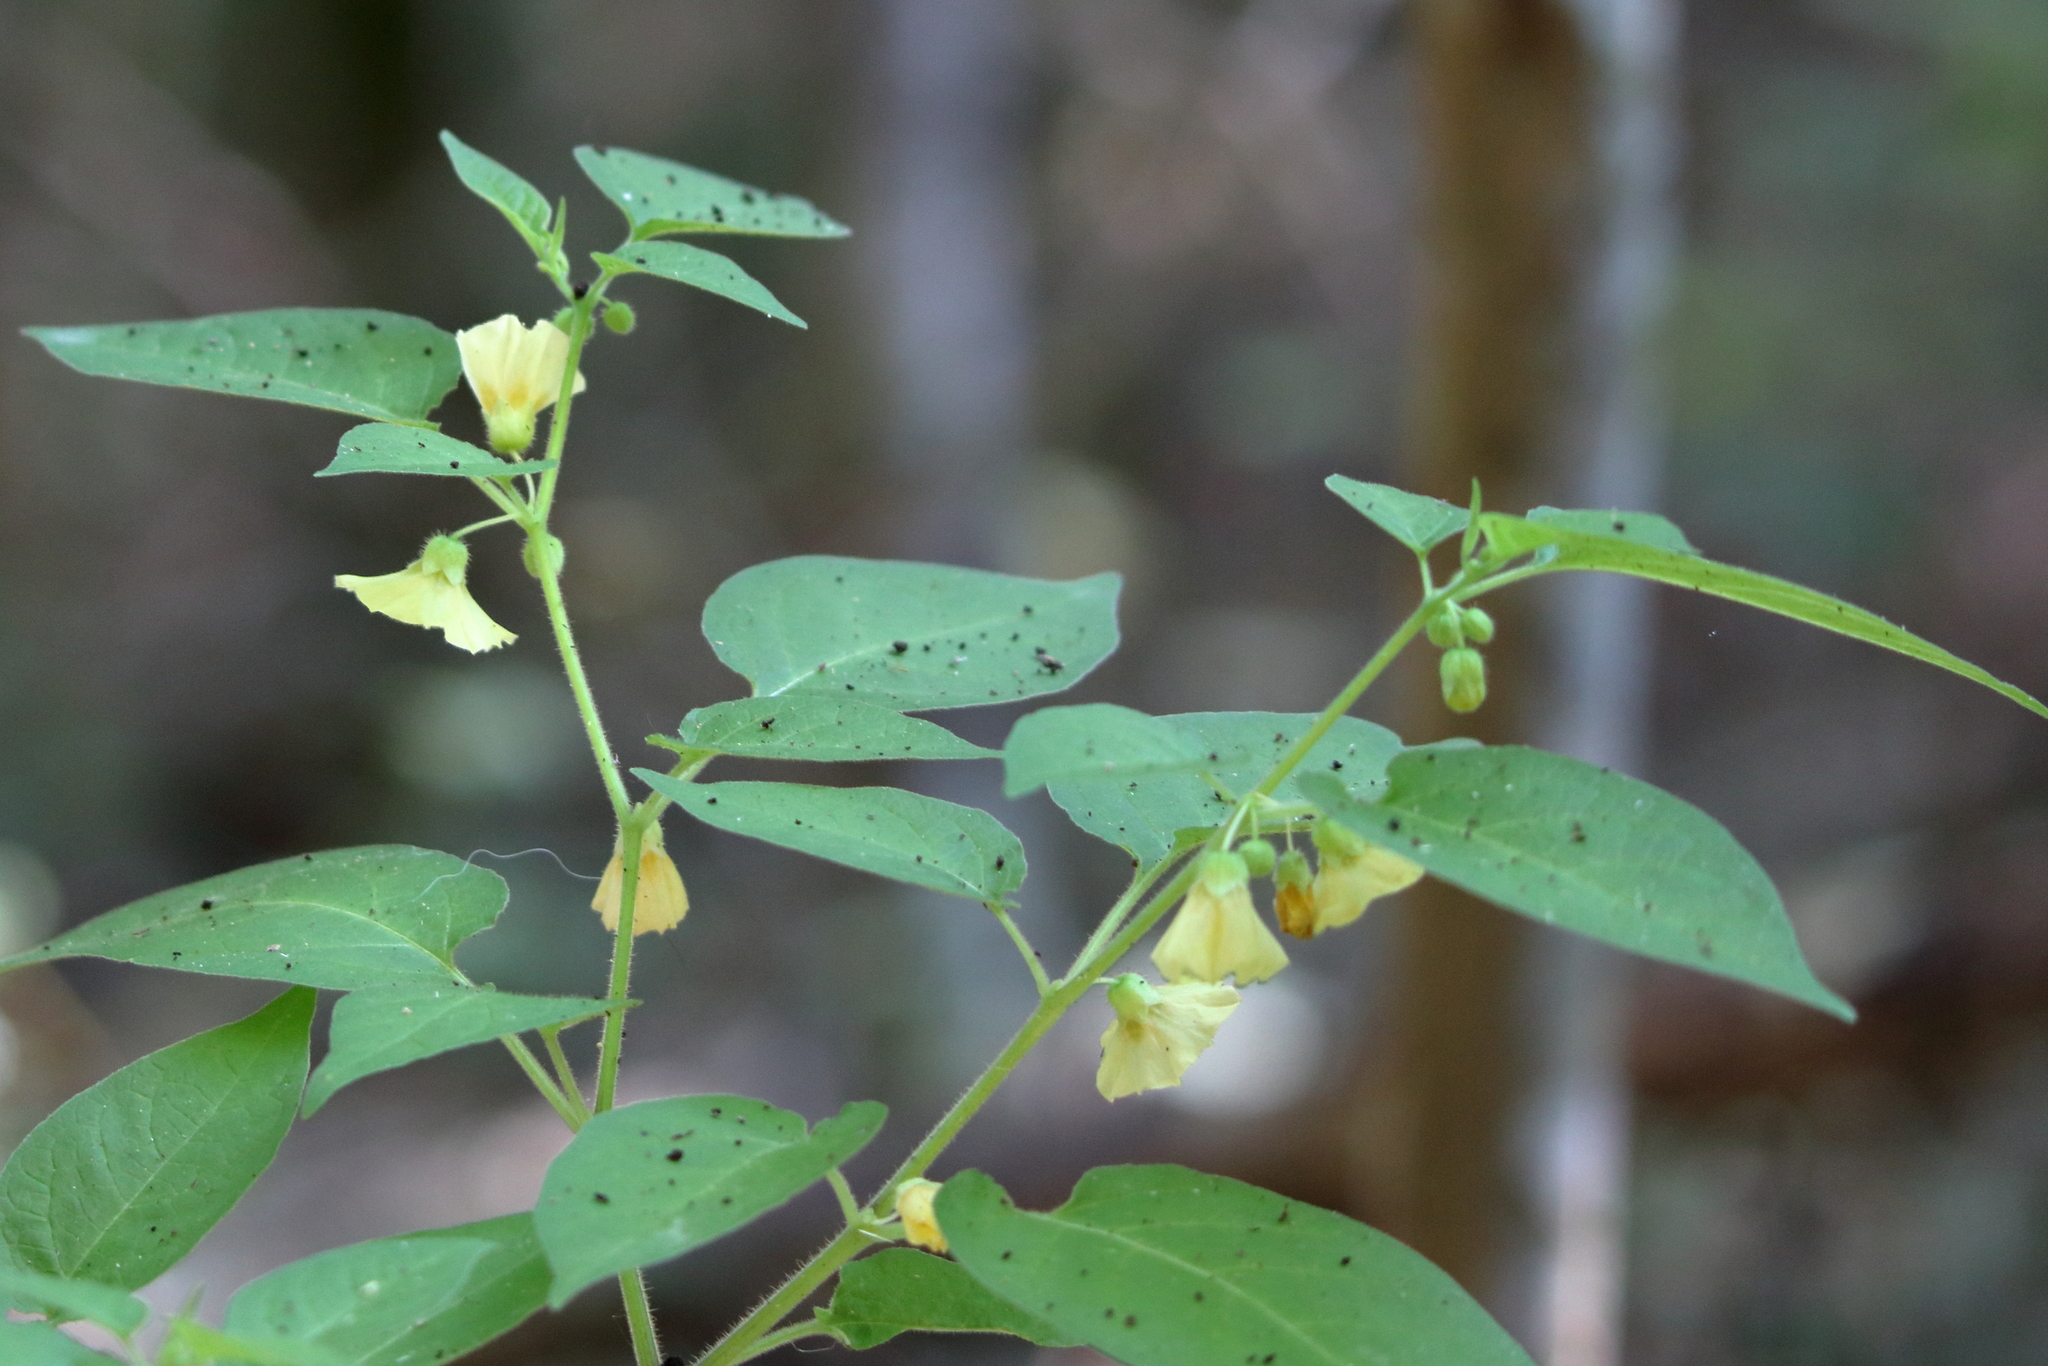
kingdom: Plantae
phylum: Tracheophyta
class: Magnoliopsida
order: Solanales
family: Solanaceae
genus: Calliphysalis
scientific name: Calliphysalis carpenteri
